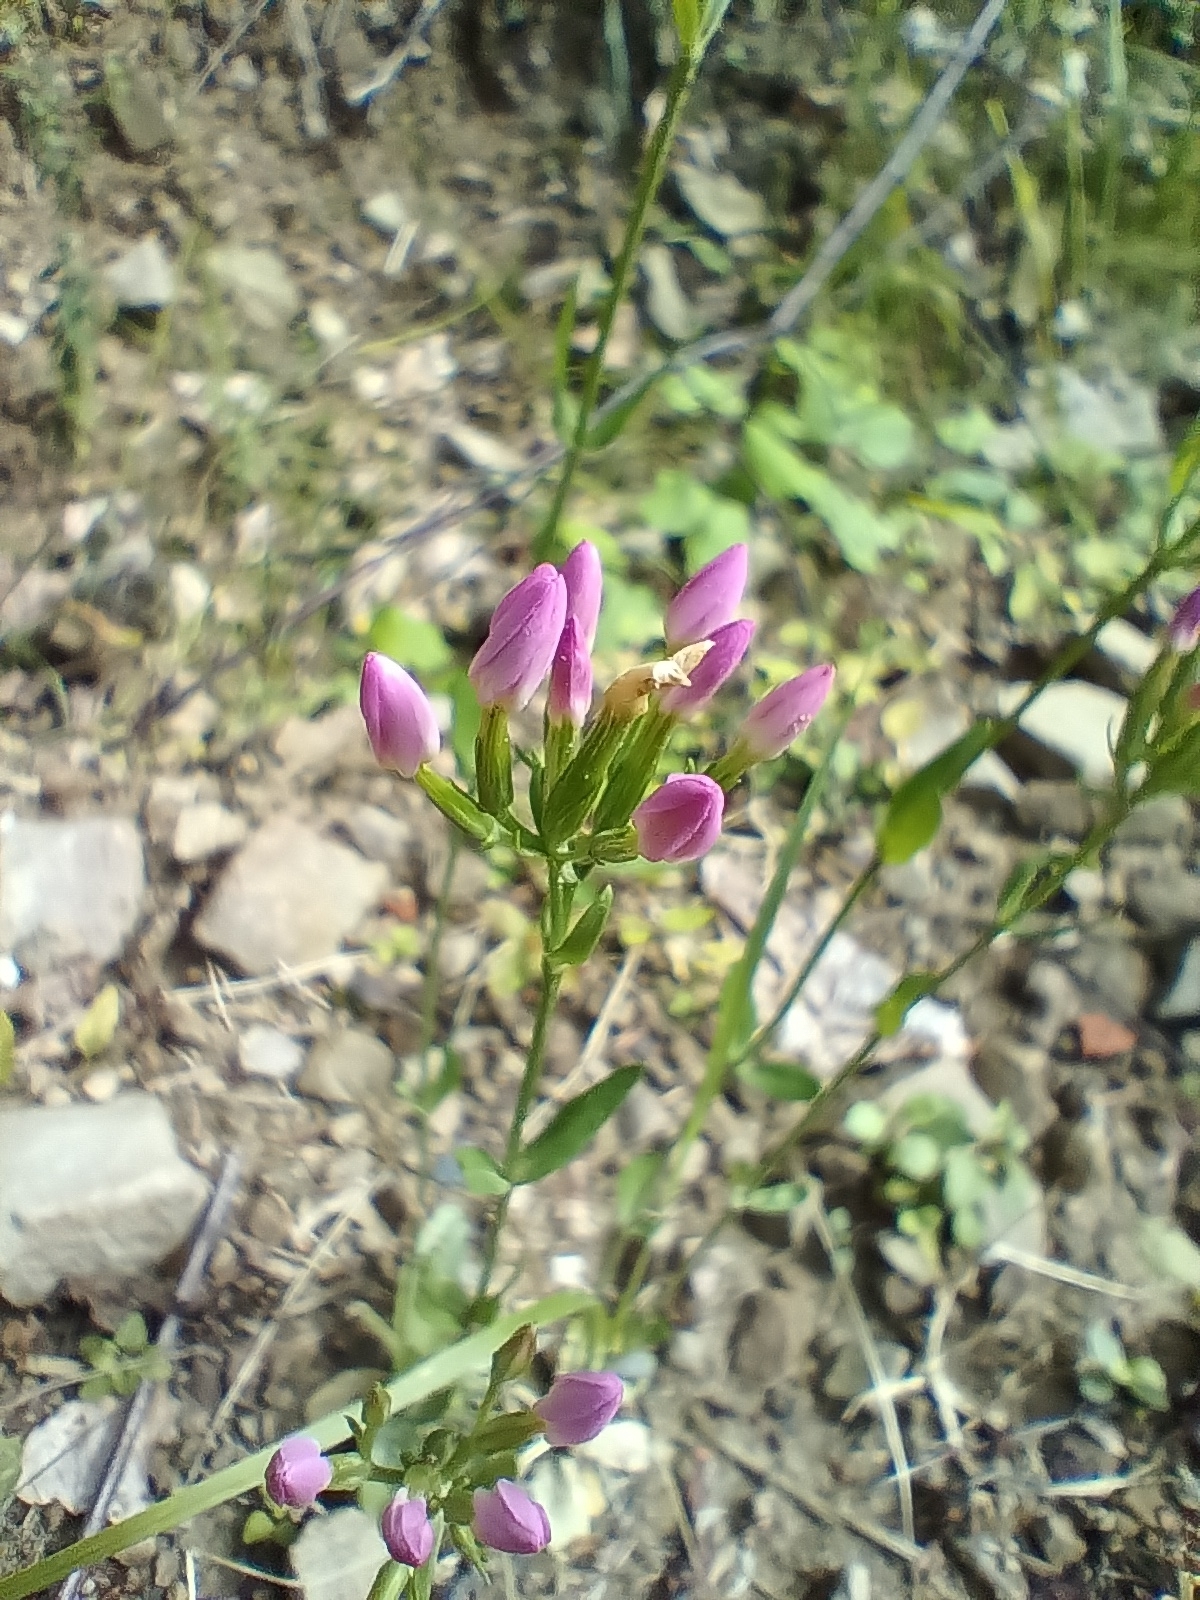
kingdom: Plantae
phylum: Tracheophyta
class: Magnoliopsida
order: Gentianales
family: Gentianaceae
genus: Centaurium
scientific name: Centaurium erythraea
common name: Common centaury
